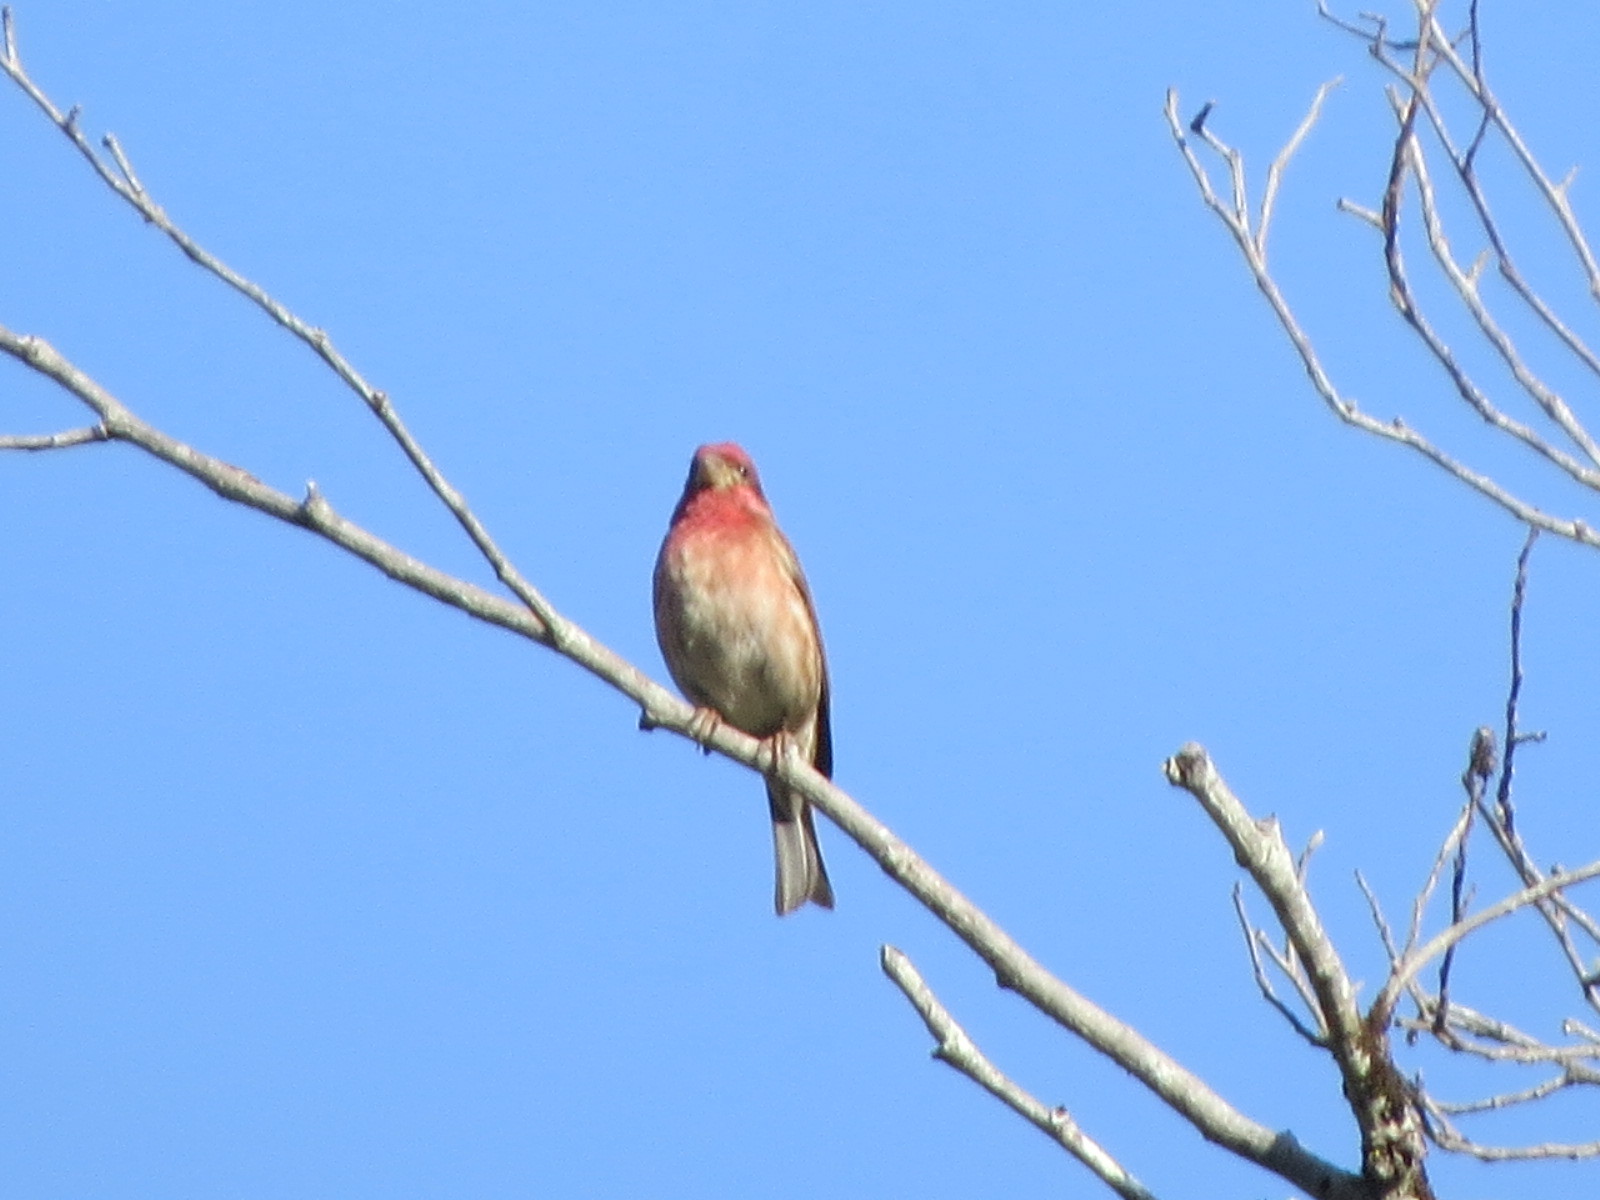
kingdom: Animalia
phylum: Chordata
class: Aves
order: Passeriformes
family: Fringillidae
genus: Haemorhous
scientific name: Haemorhous purpureus
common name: Purple finch
